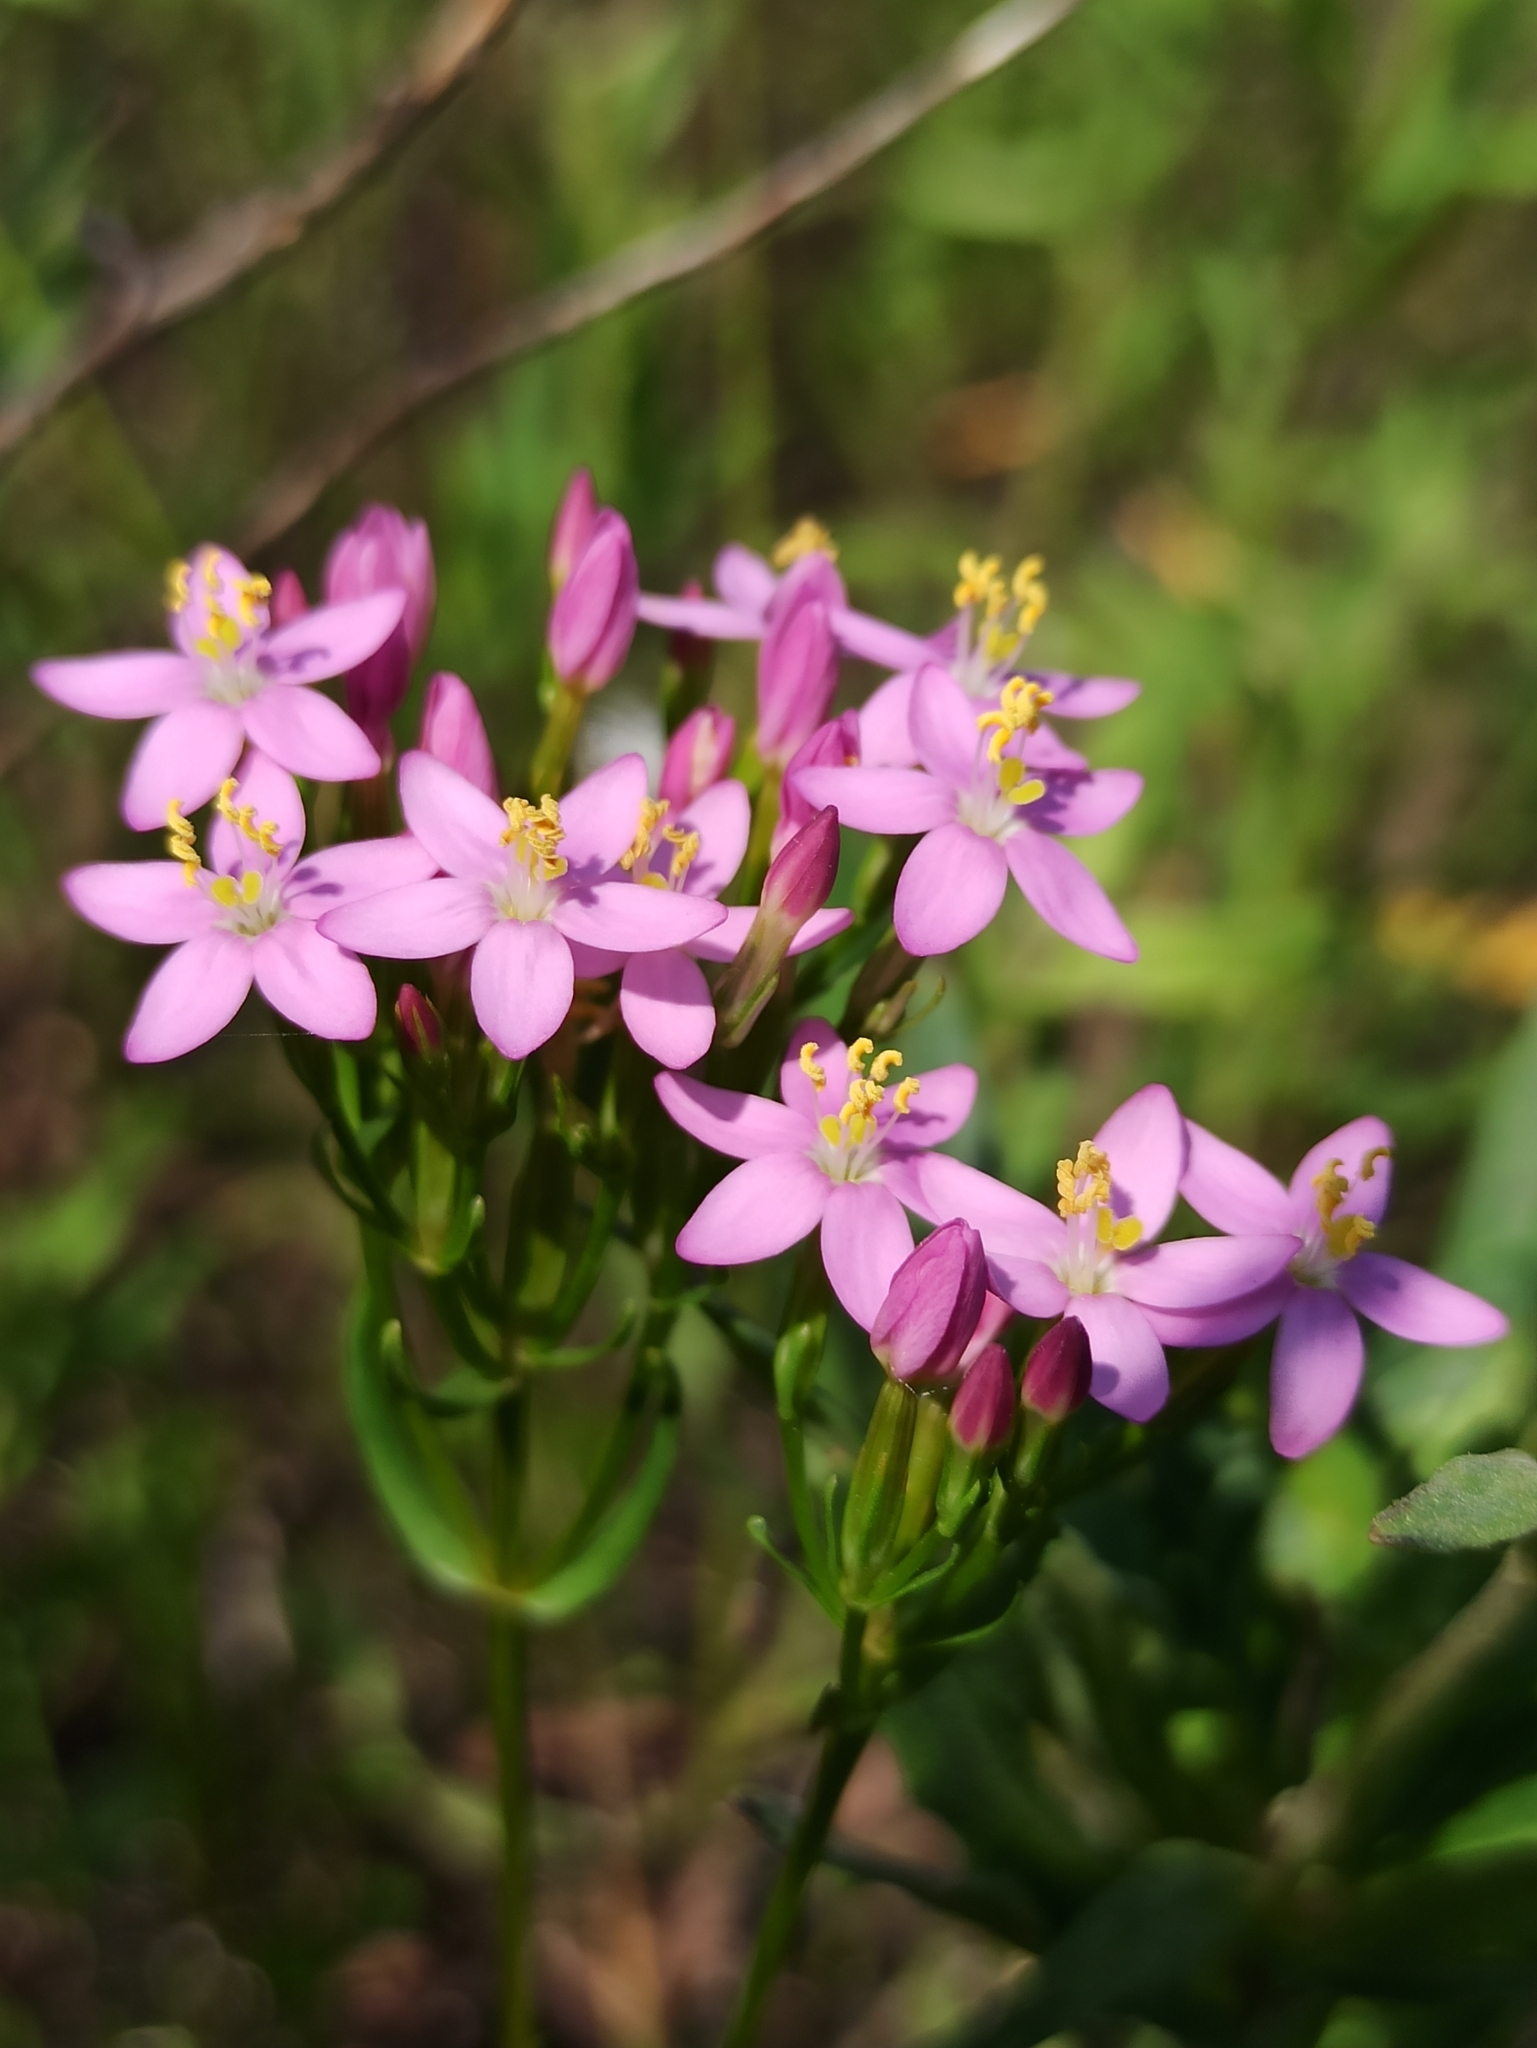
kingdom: Plantae
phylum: Tracheophyta
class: Magnoliopsida
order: Gentianales
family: Gentianaceae
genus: Centaurium
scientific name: Centaurium erythraea
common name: Common centaury
